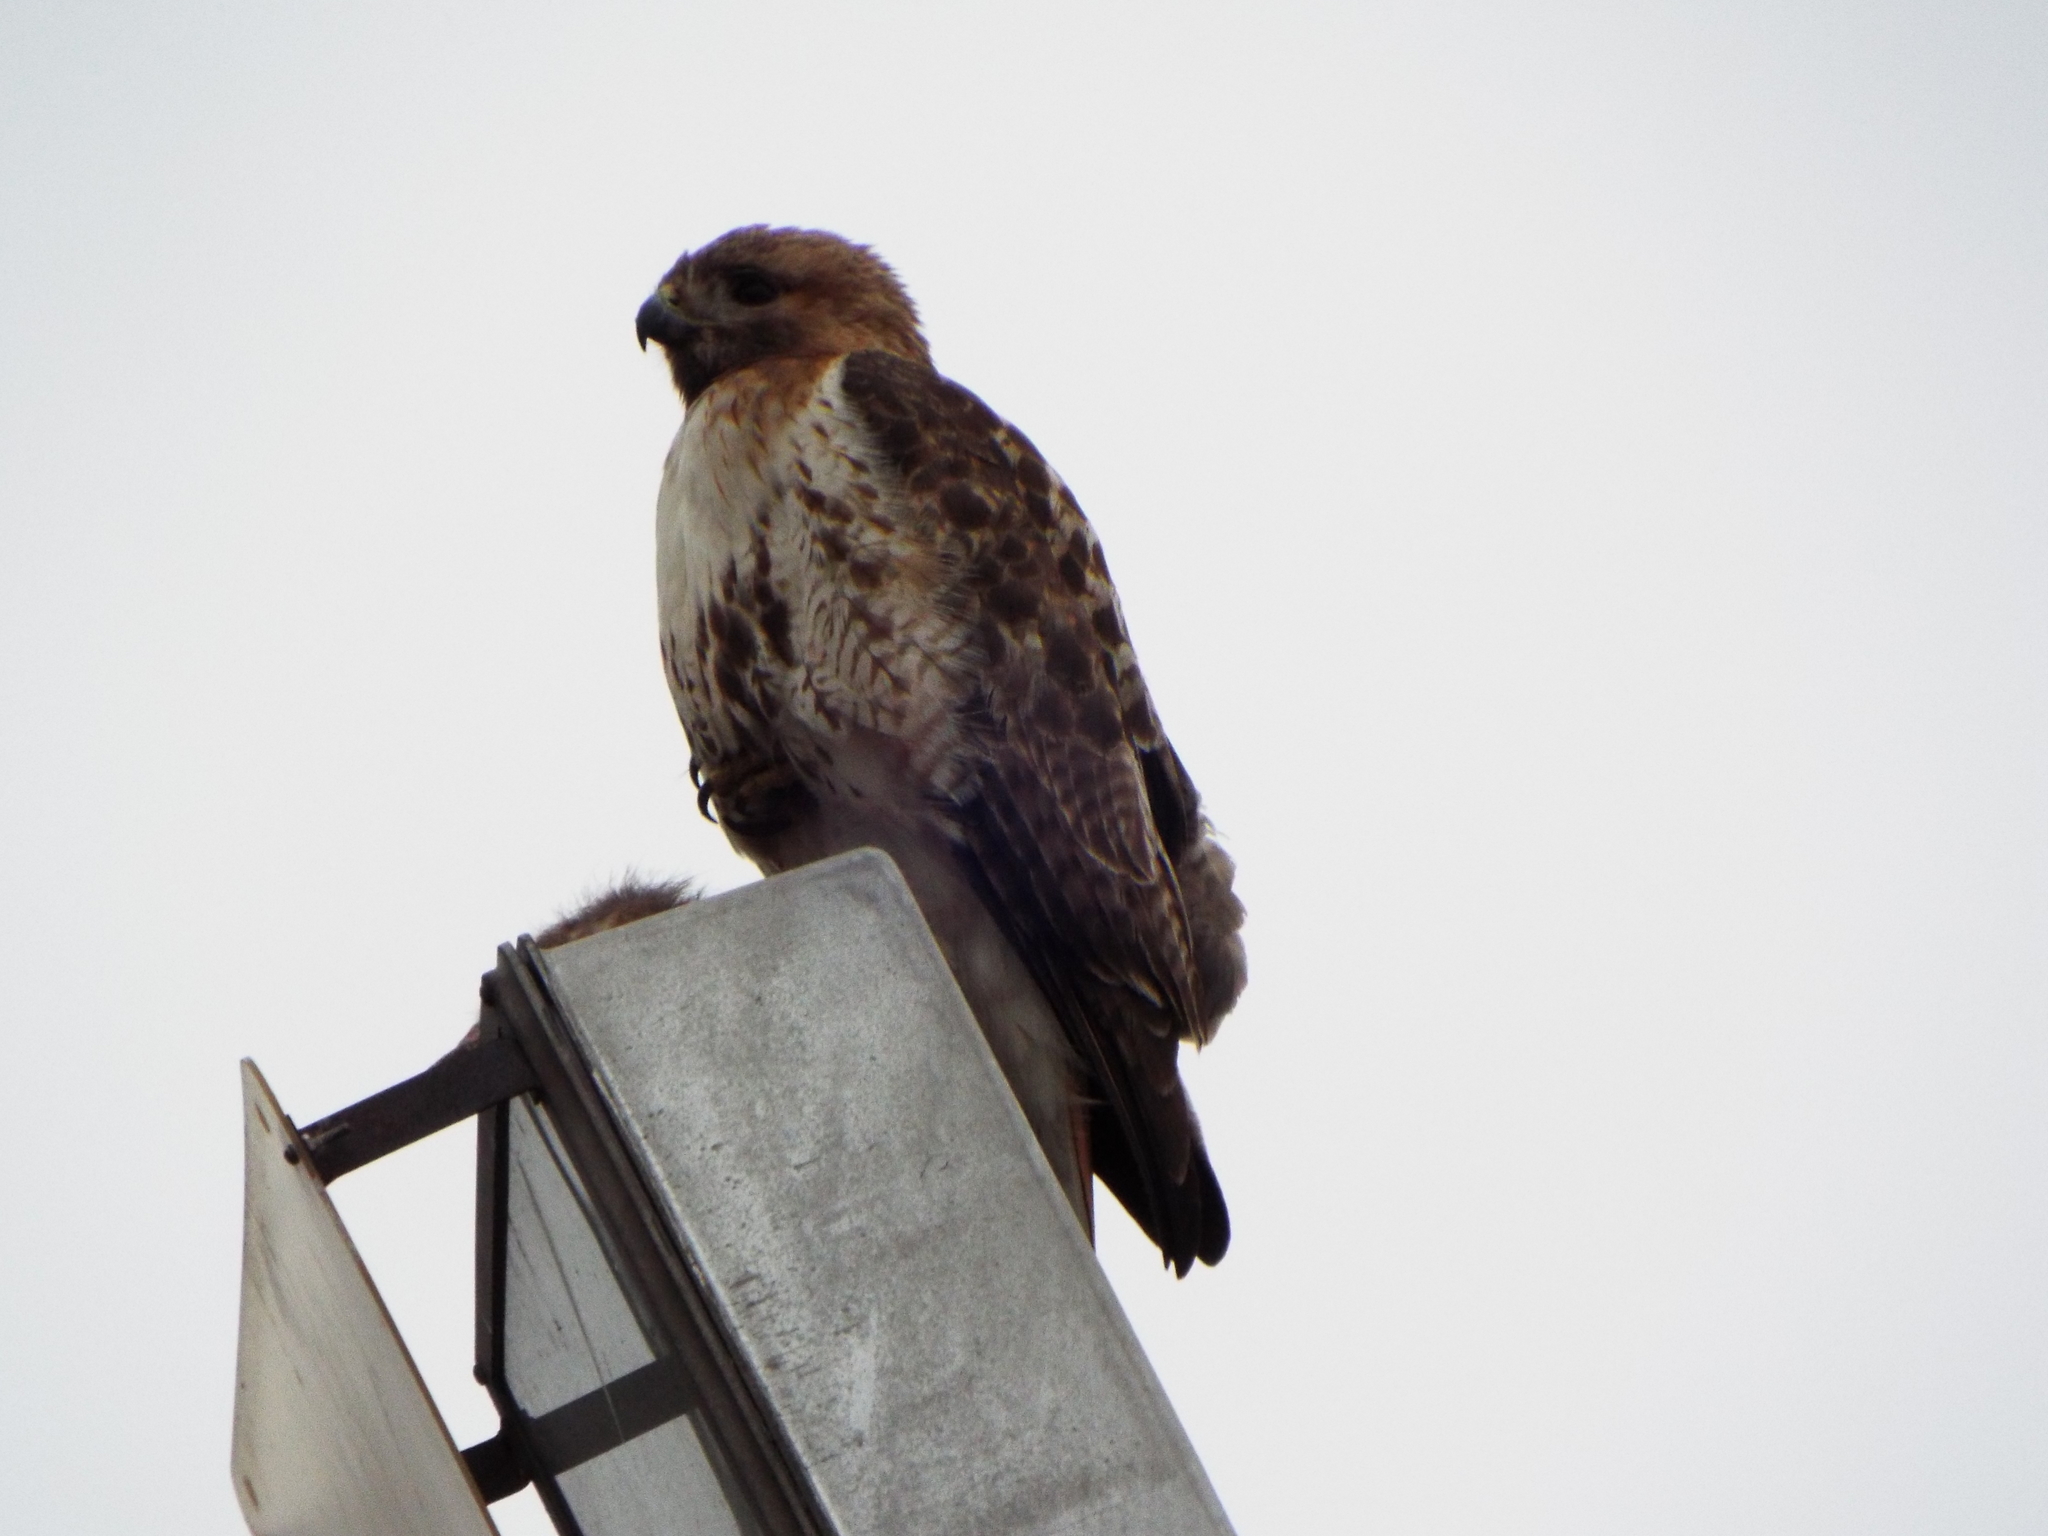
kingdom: Animalia
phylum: Chordata
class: Aves
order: Accipitriformes
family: Accipitridae
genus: Buteo
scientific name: Buteo jamaicensis
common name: Red-tailed hawk
